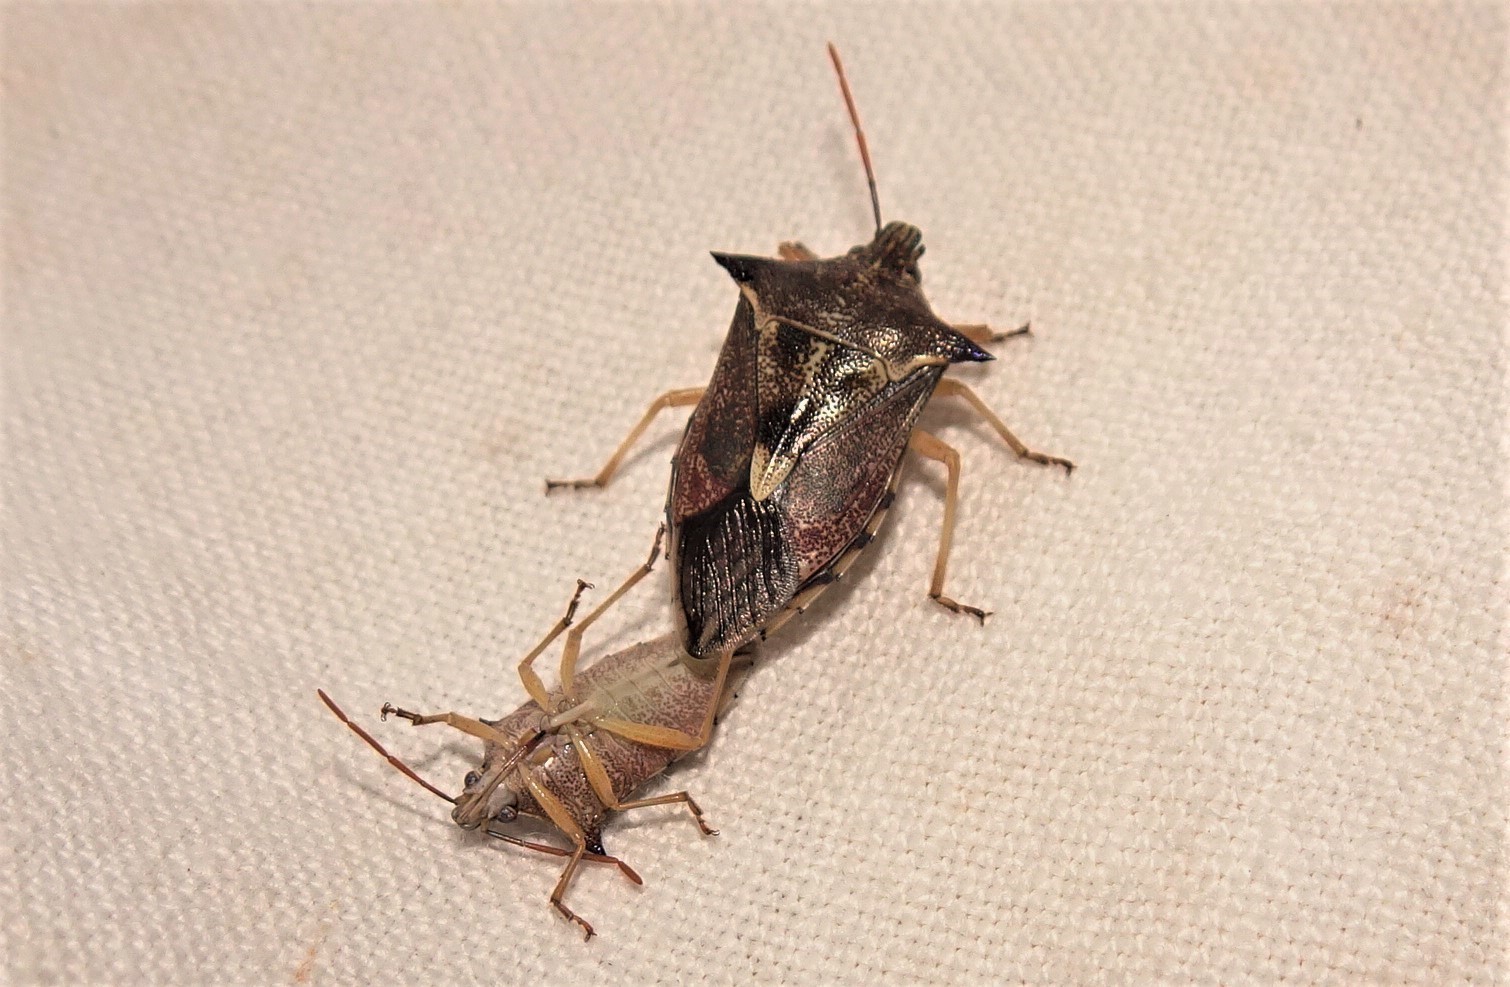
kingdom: Animalia
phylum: Arthropoda
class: Insecta
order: Hemiptera
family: Pentatomidae
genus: Oechalia
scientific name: Oechalia schellenbergii
